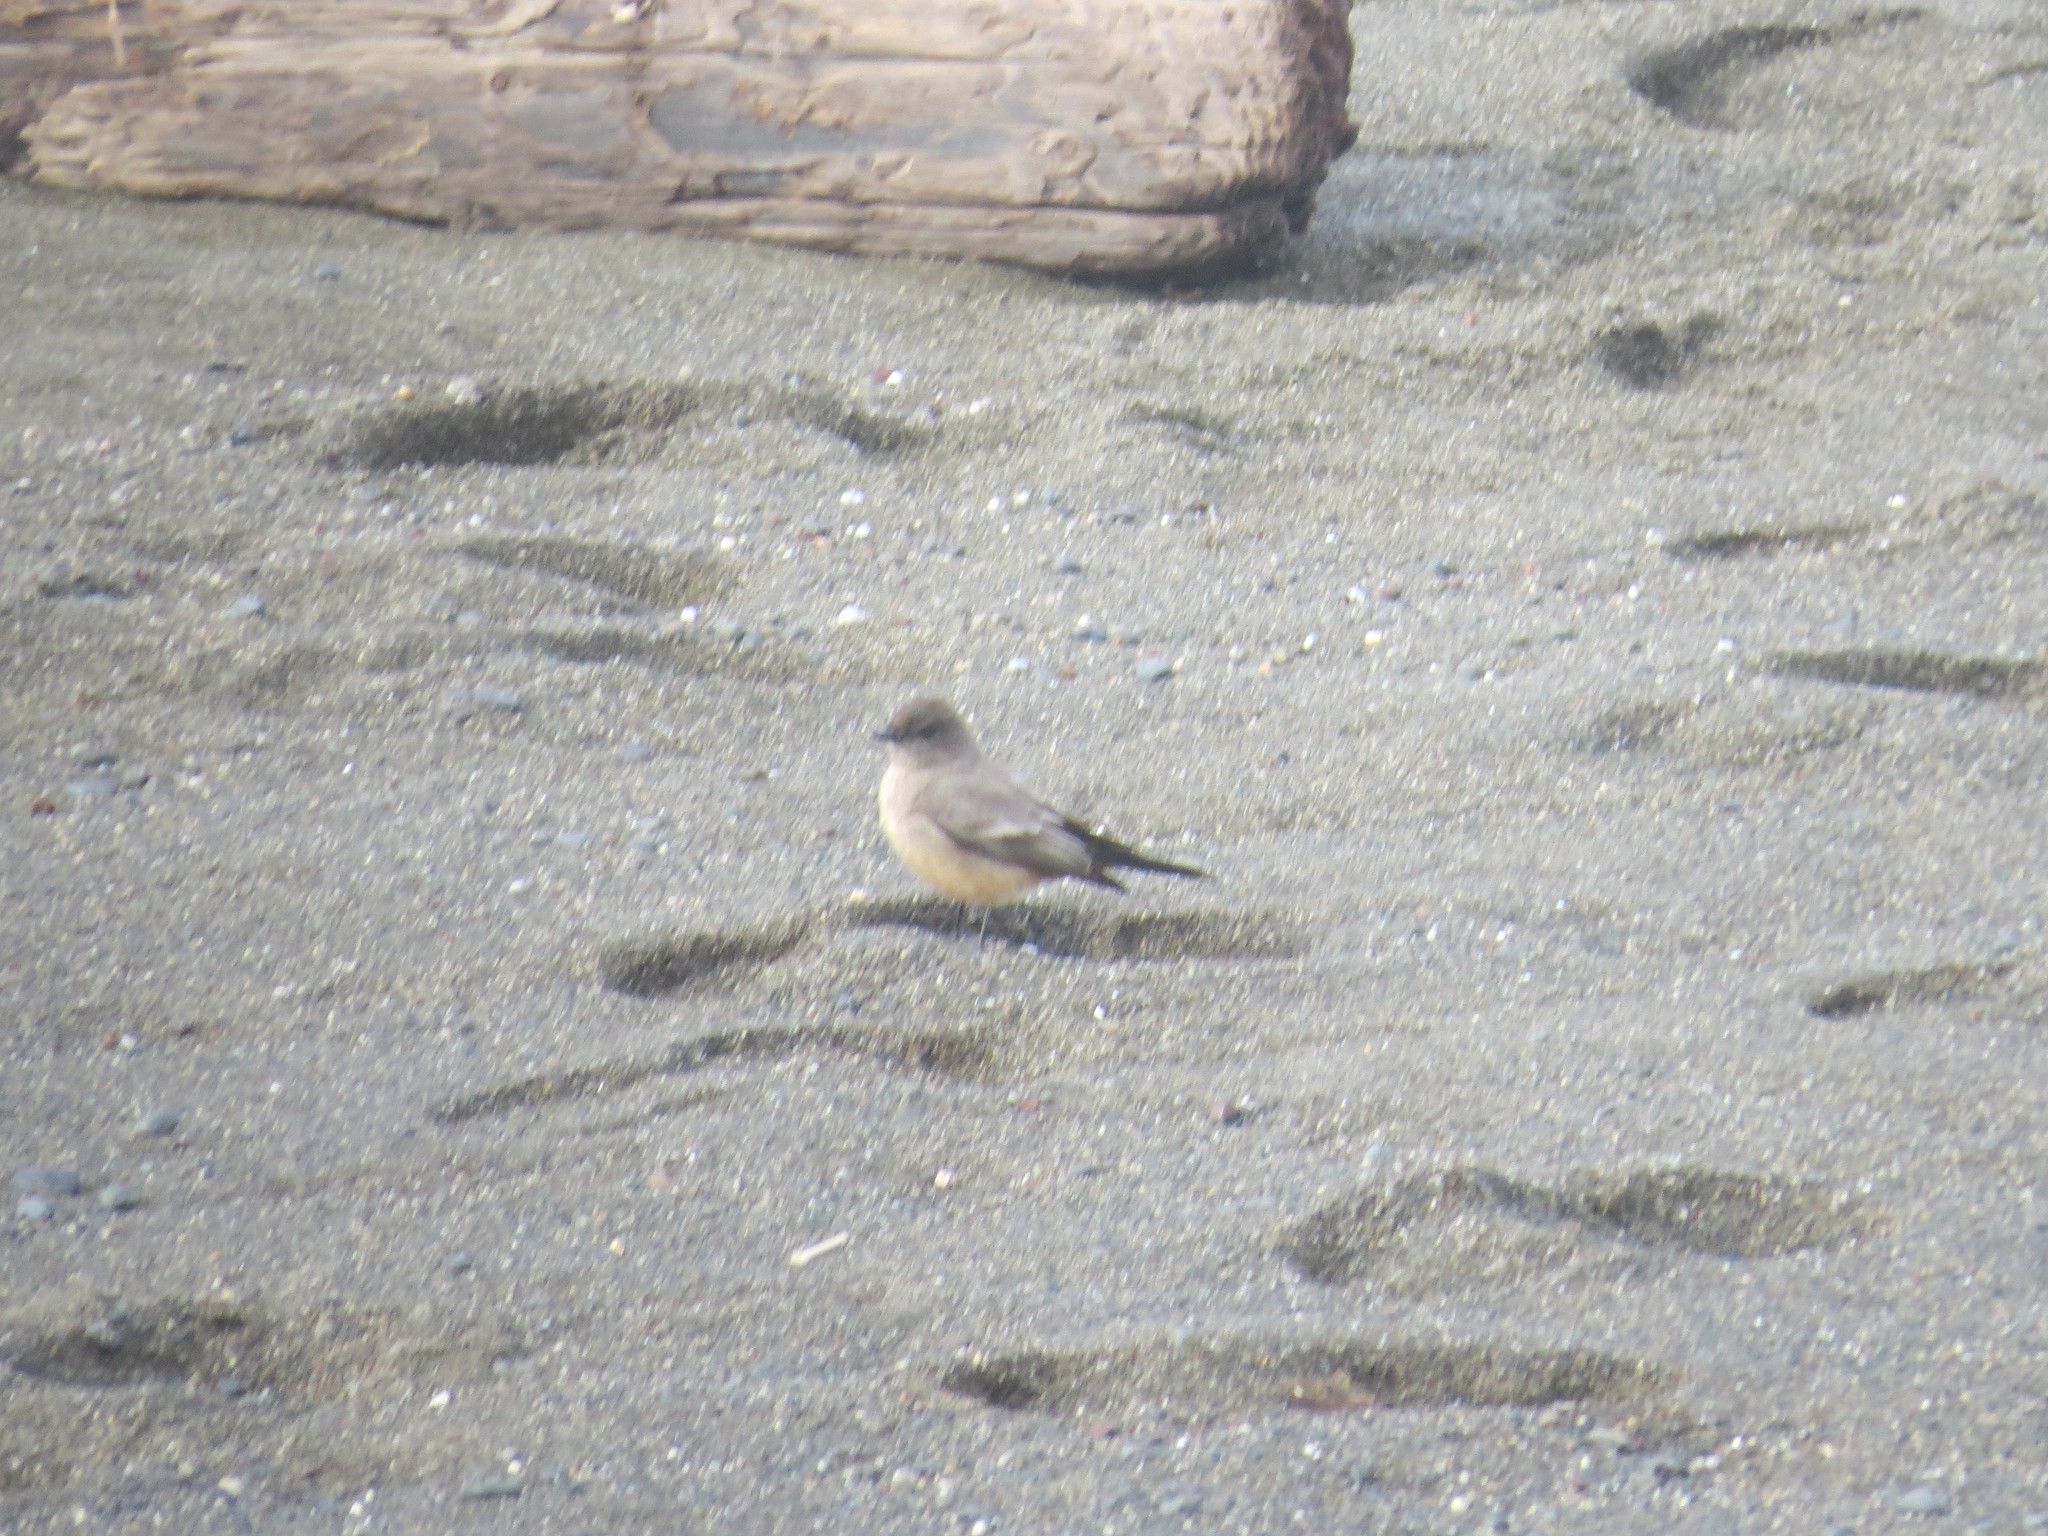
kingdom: Animalia
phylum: Chordata
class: Aves
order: Passeriformes
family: Tyrannidae
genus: Sayornis
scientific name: Sayornis saya
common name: Say's phoebe
